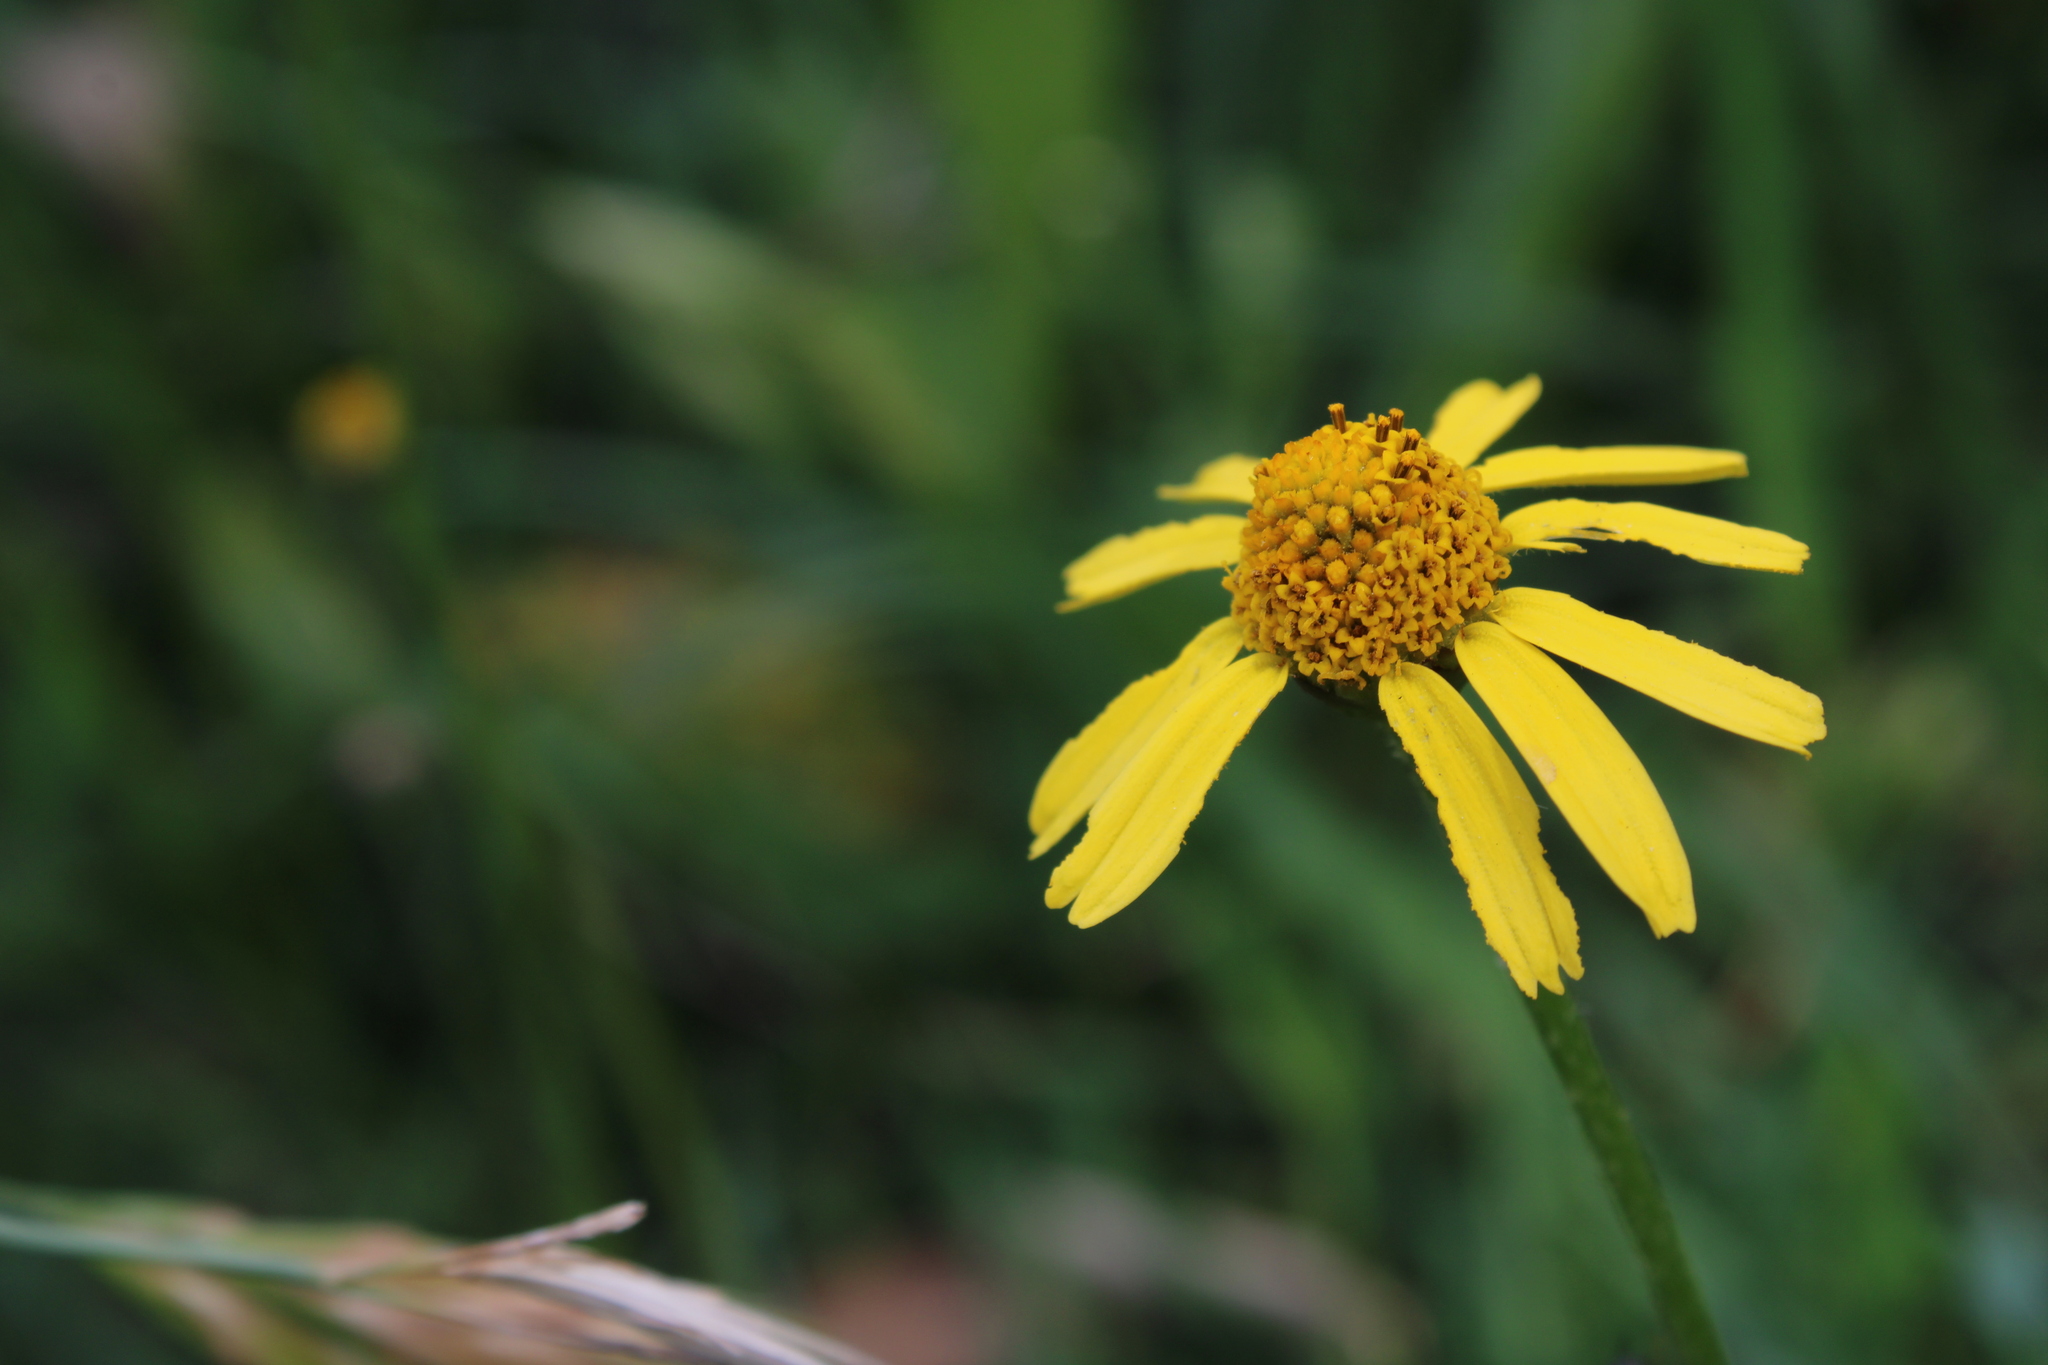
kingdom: Plantae
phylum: Tracheophyta
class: Magnoliopsida
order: Asterales
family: Asteraceae
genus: Acmella
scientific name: Acmella decumbens
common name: Creeping spotflower
